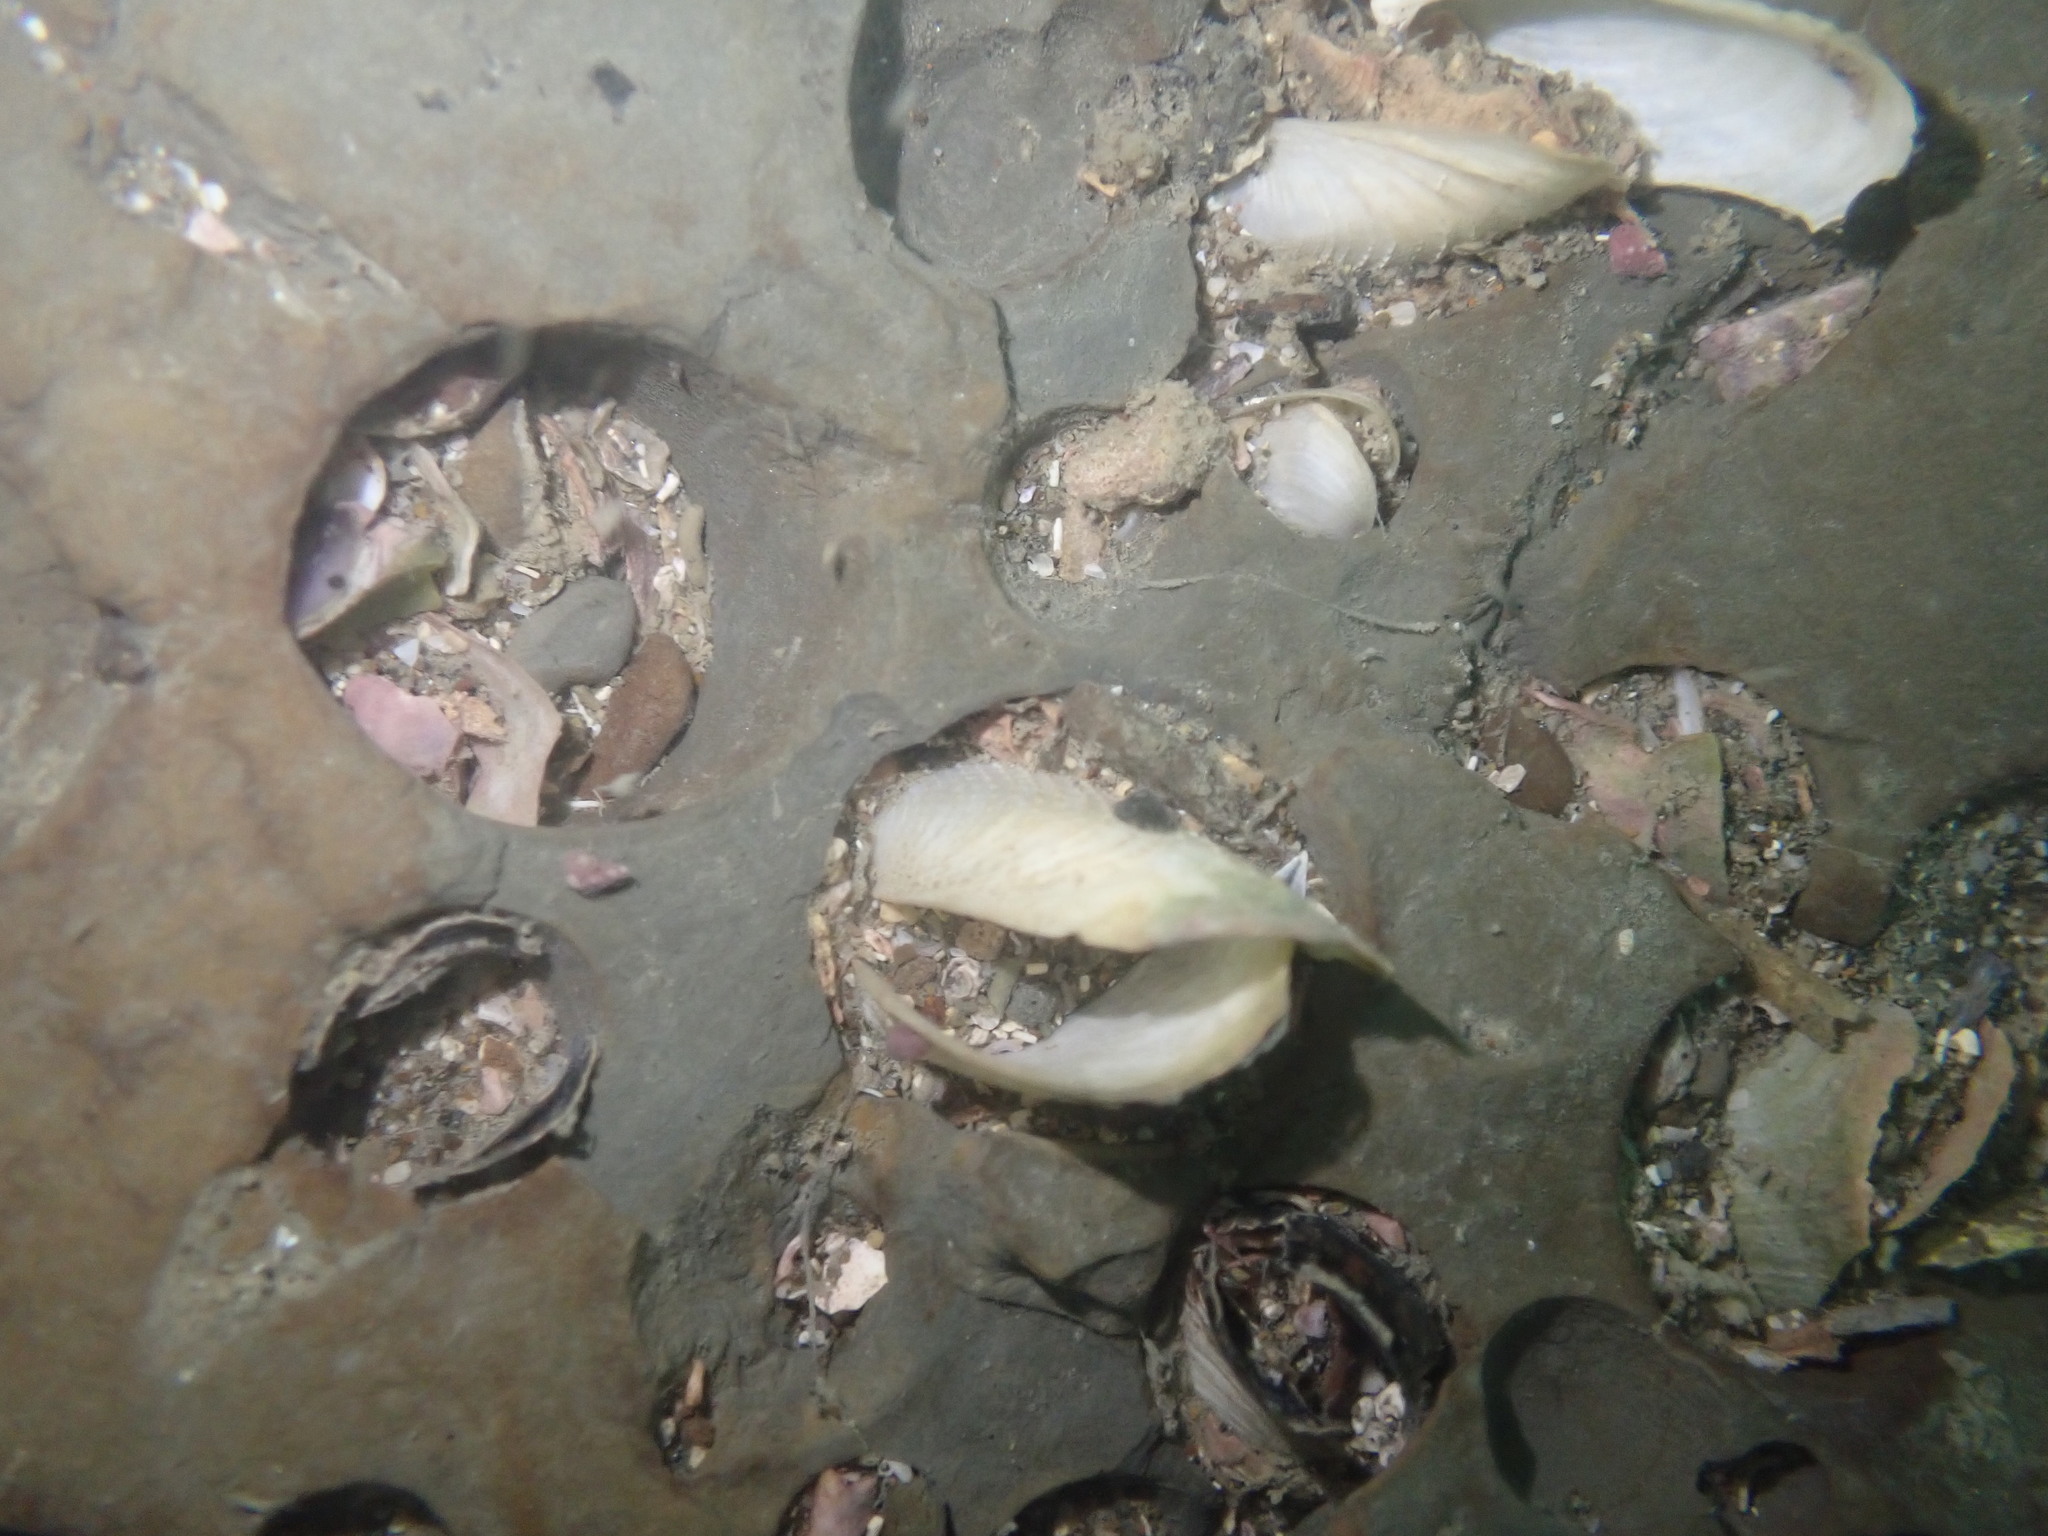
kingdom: Animalia
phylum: Mollusca
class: Bivalvia
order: Myida
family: Pholadidae
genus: Barnea
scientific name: Barnea similis
